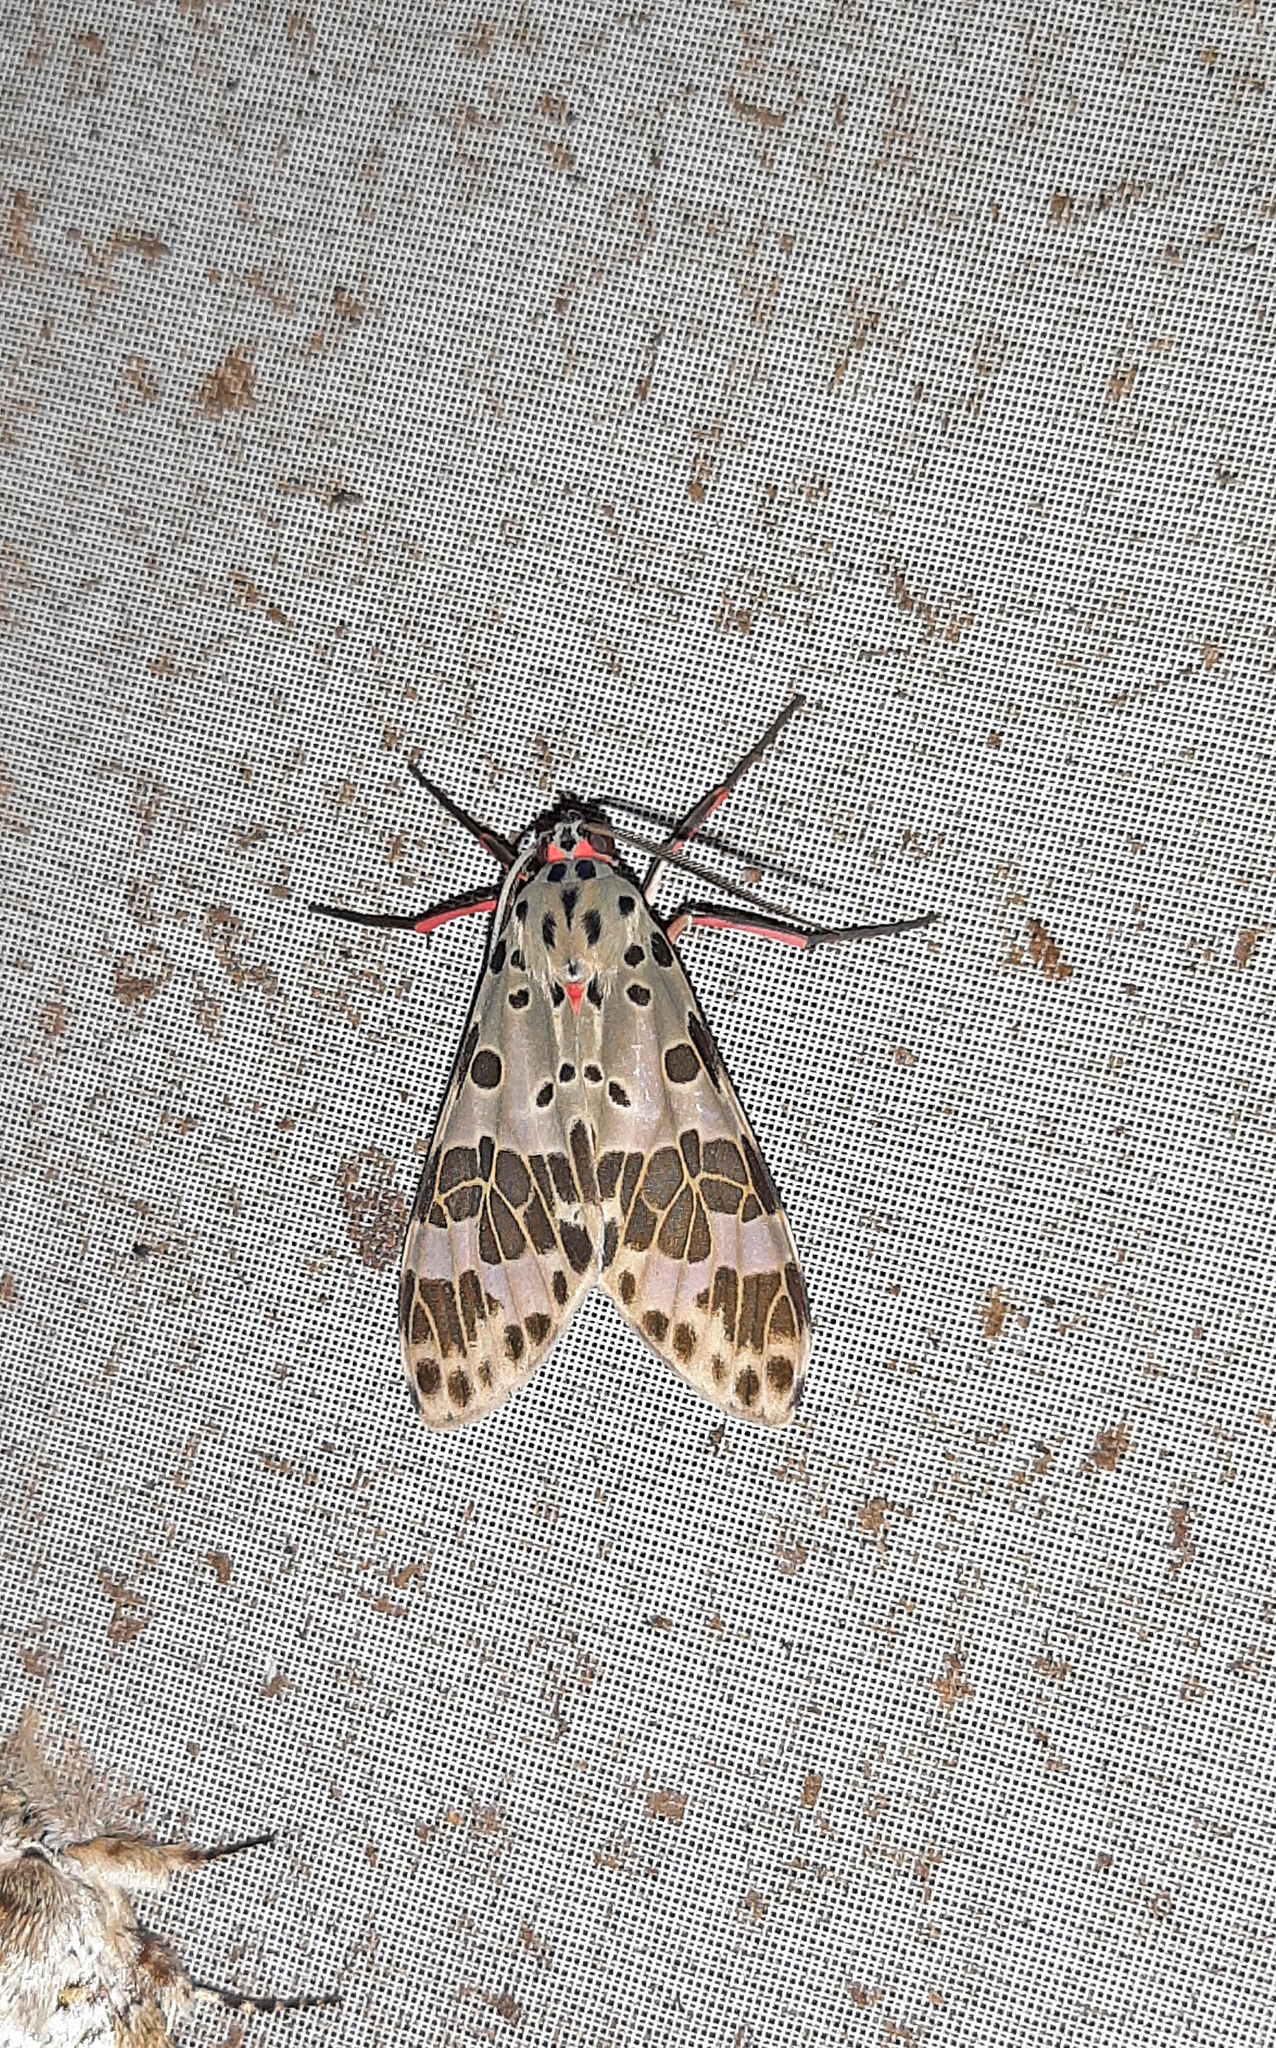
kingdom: Animalia
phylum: Arthropoda
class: Insecta
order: Lepidoptera
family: Erebidae
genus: Heliura
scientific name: Heliura thysbodes
